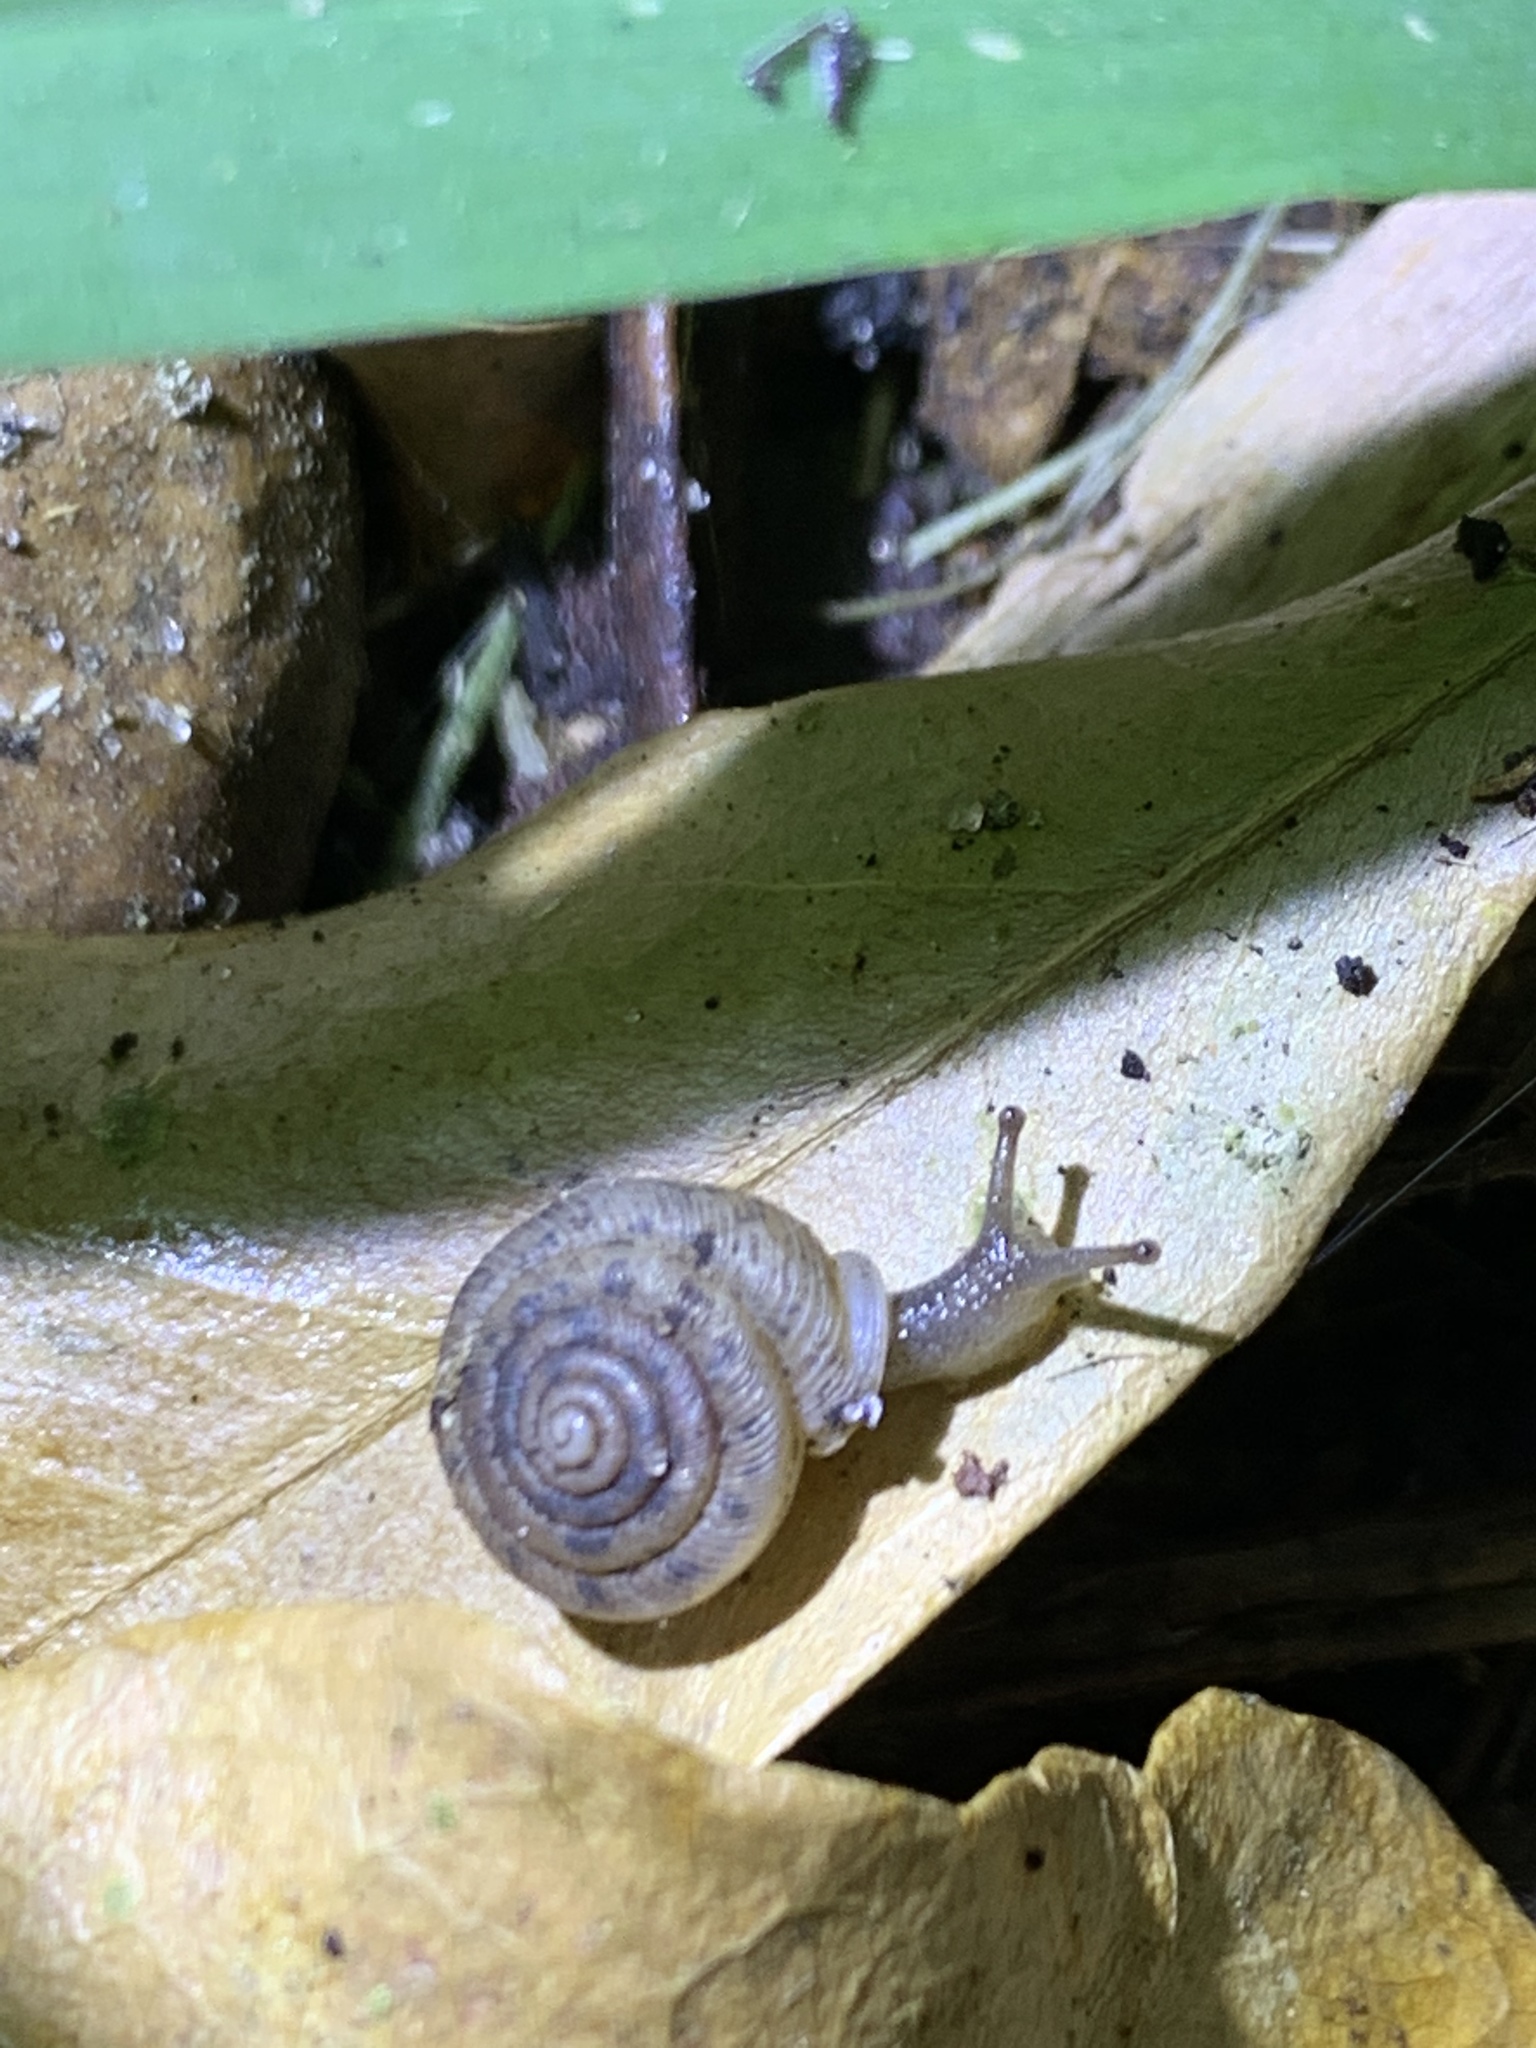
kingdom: Animalia
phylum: Mollusca
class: Gastropoda
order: Stylommatophora
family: Polygyridae
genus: Polygyra
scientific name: Polygyra cereolus
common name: Southern flatcone snail
